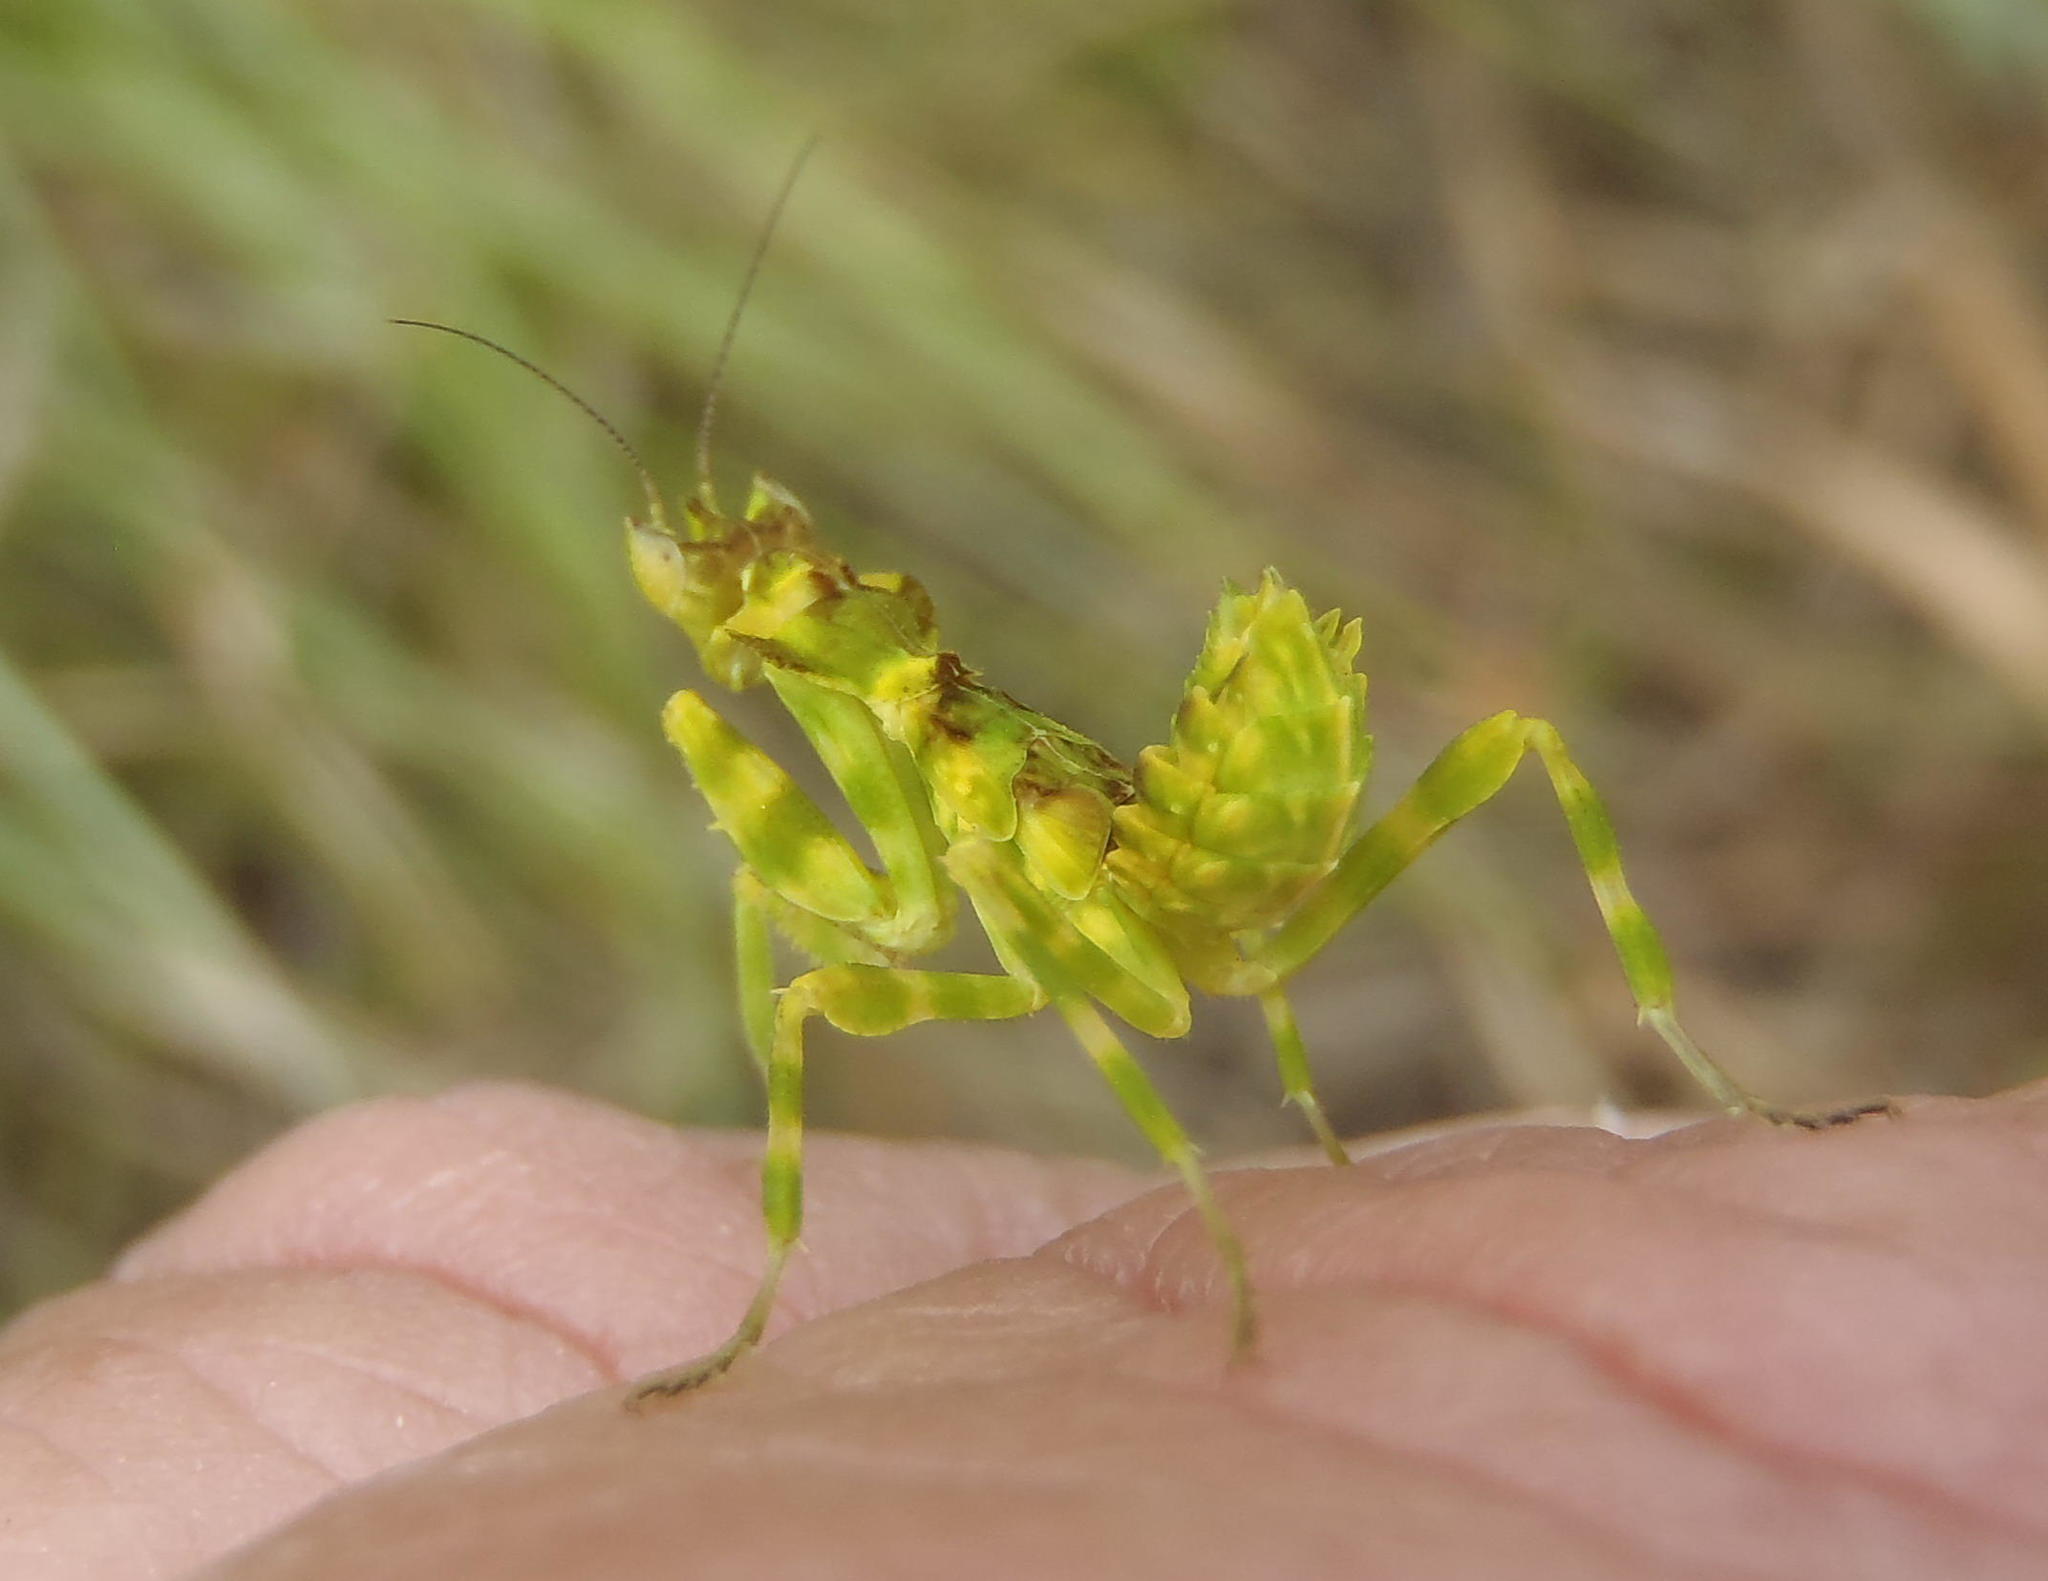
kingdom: Animalia
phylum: Arthropoda
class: Insecta
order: Mantodea
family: Galinthiadidae
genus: Harpagomantis
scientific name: Harpagomantis tricolor
